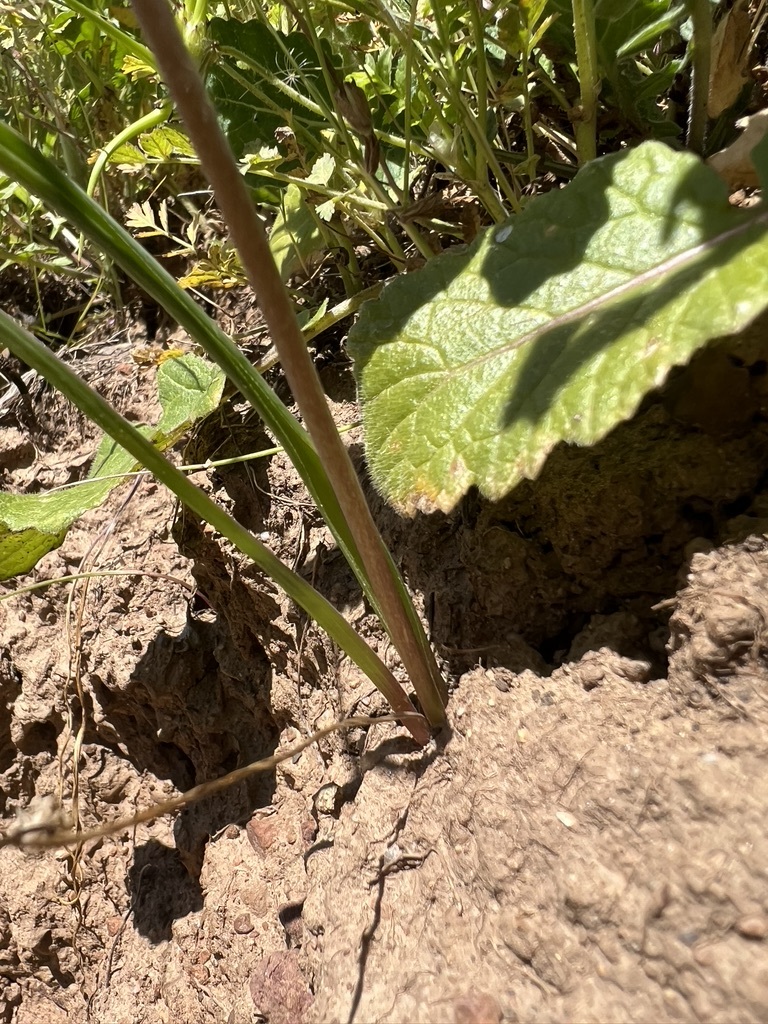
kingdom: Plantae
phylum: Tracheophyta
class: Liliopsida
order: Asparagales
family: Asparagaceae
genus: Dipterostemon
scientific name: Dipterostemon capitatus
